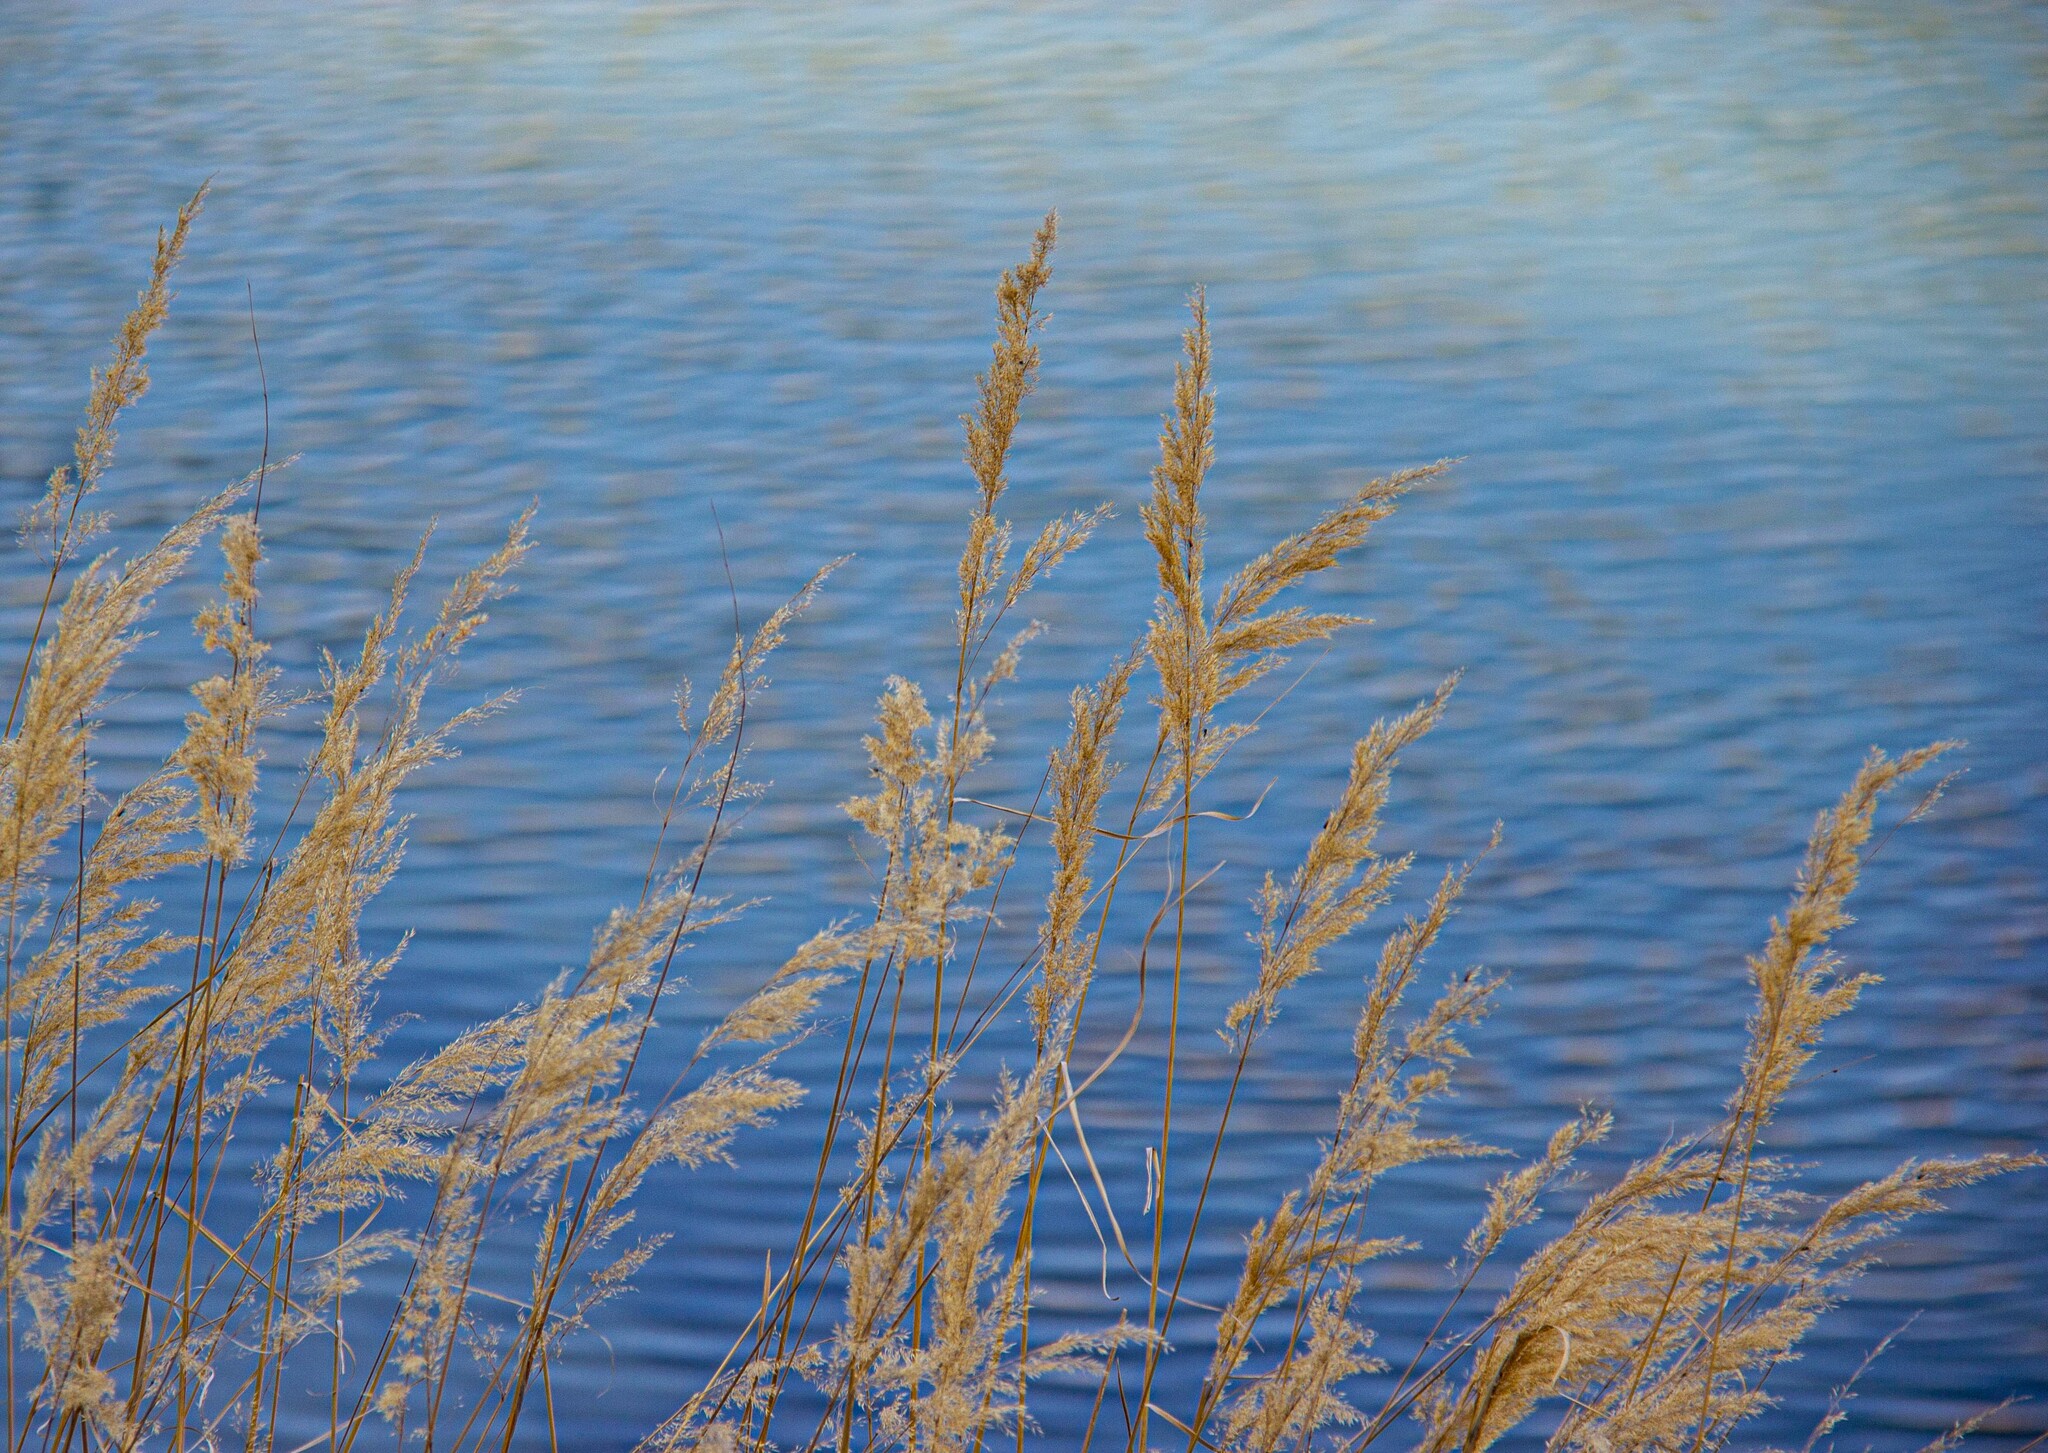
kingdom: Plantae
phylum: Tracheophyta
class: Liliopsida
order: Poales
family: Poaceae
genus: Phragmites
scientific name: Phragmites australis
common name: Common reed
